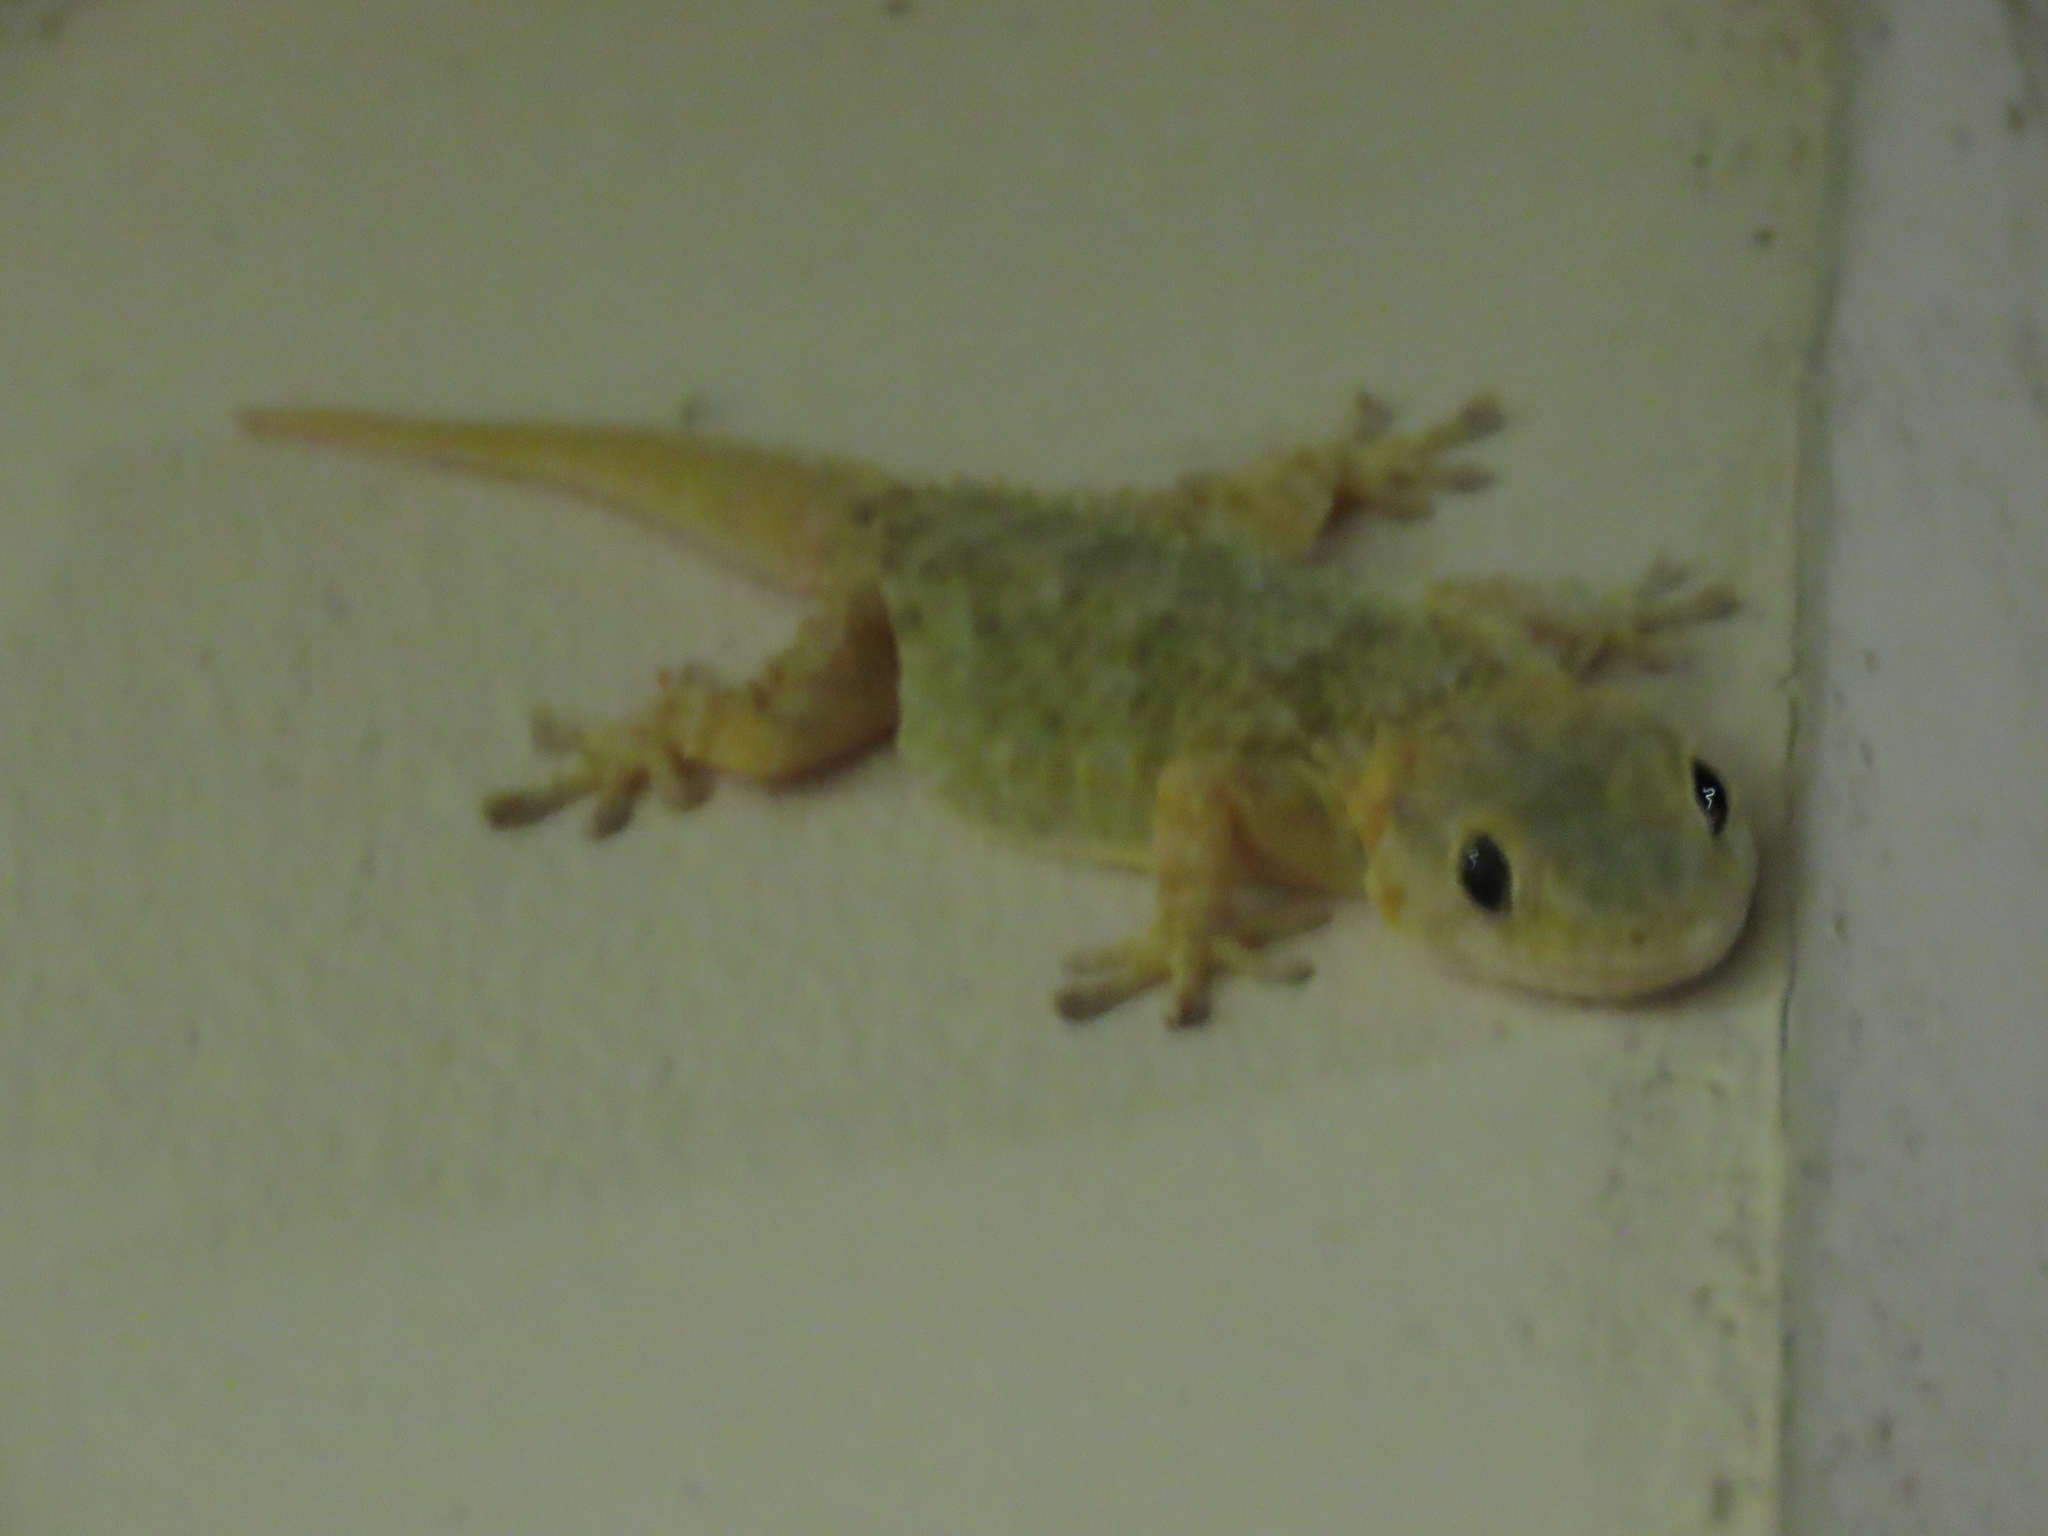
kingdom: Animalia
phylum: Chordata
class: Squamata
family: Phyllodactylidae
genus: Tarentola
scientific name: Tarentola mauritanica
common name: Moorish gecko
